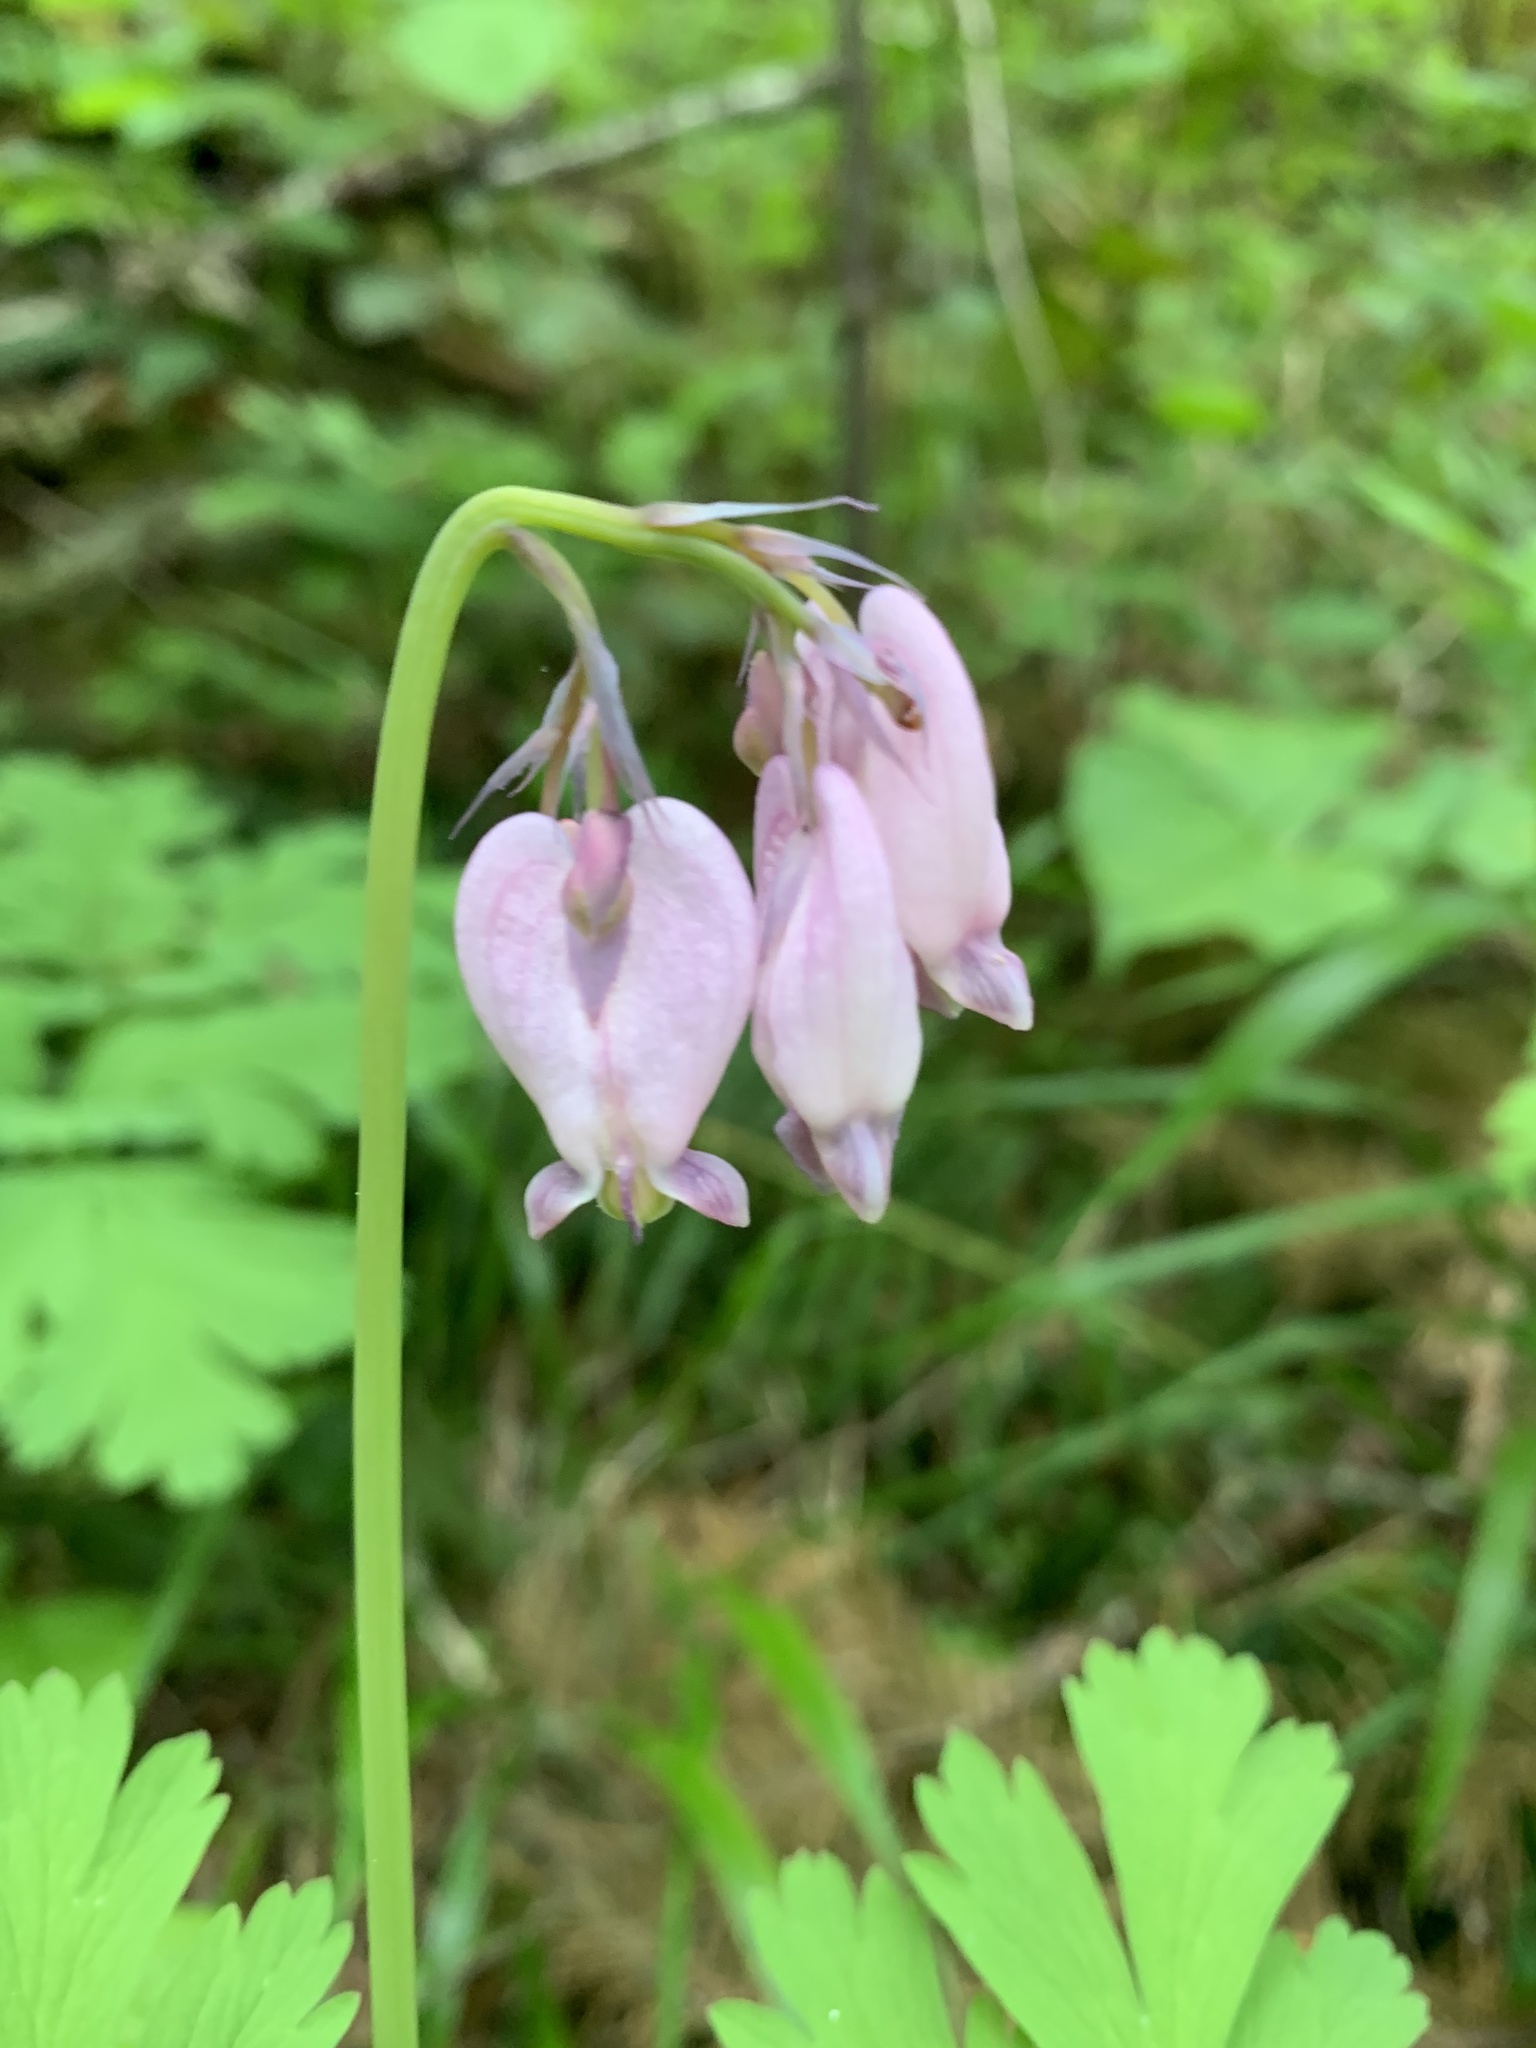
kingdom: Plantae
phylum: Tracheophyta
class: Magnoliopsida
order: Ranunculales
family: Papaveraceae
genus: Dicentra
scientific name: Dicentra formosa
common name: Bleeding-heart
